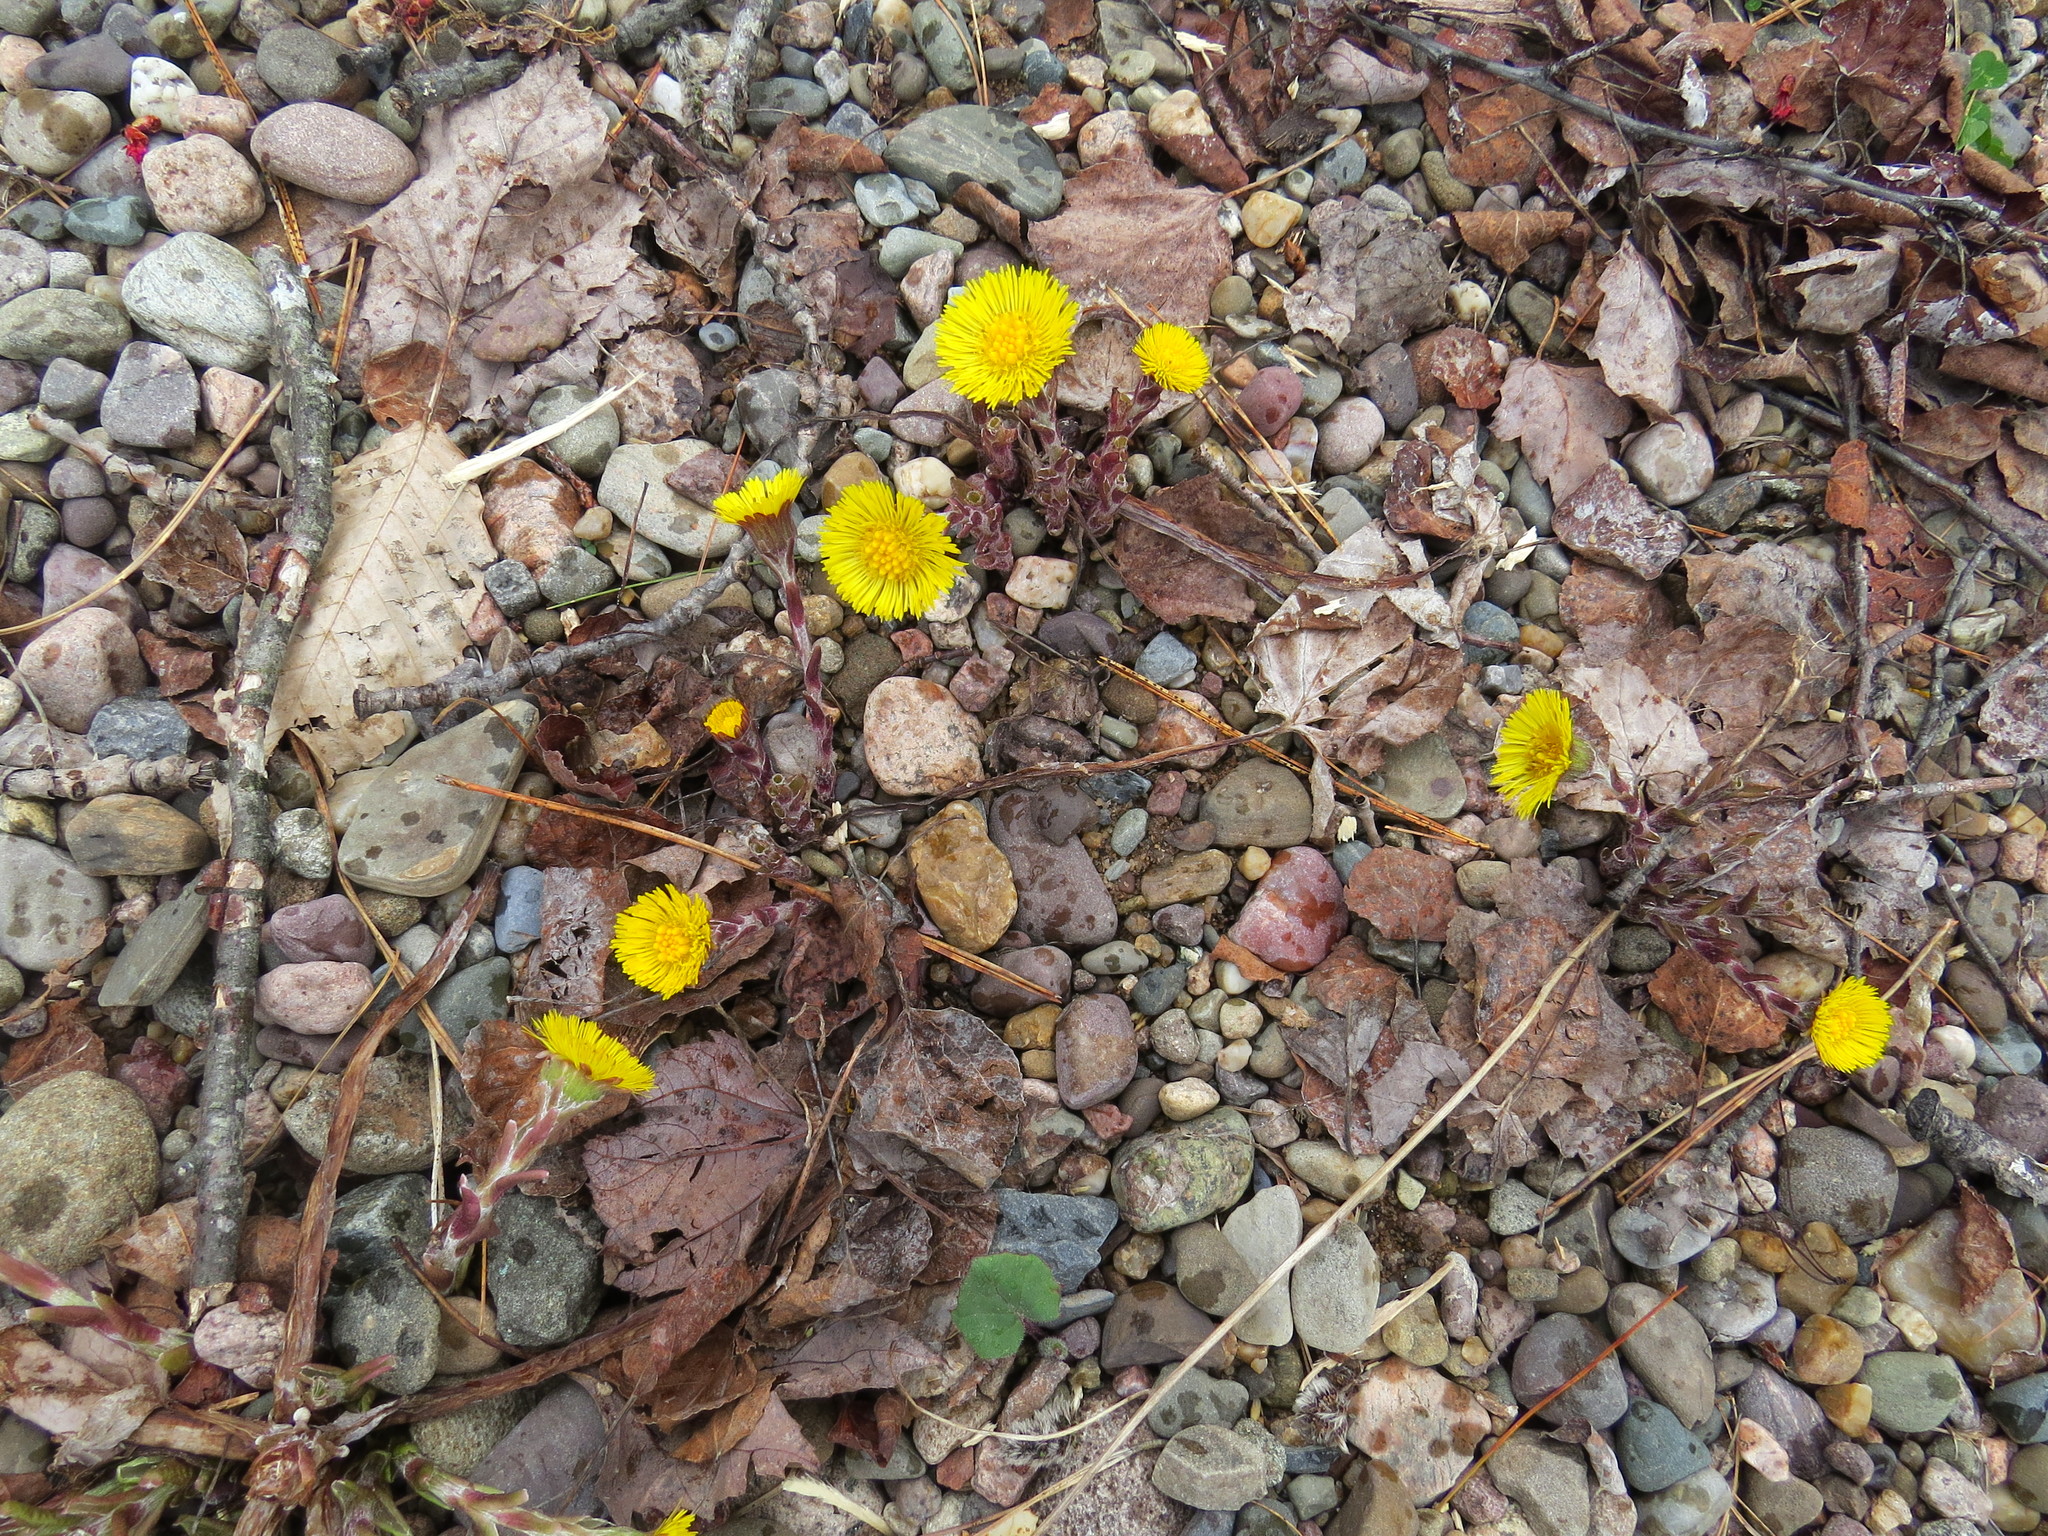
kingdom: Plantae
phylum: Tracheophyta
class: Magnoliopsida
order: Asterales
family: Asteraceae
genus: Tussilago
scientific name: Tussilago farfara
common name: Coltsfoot
